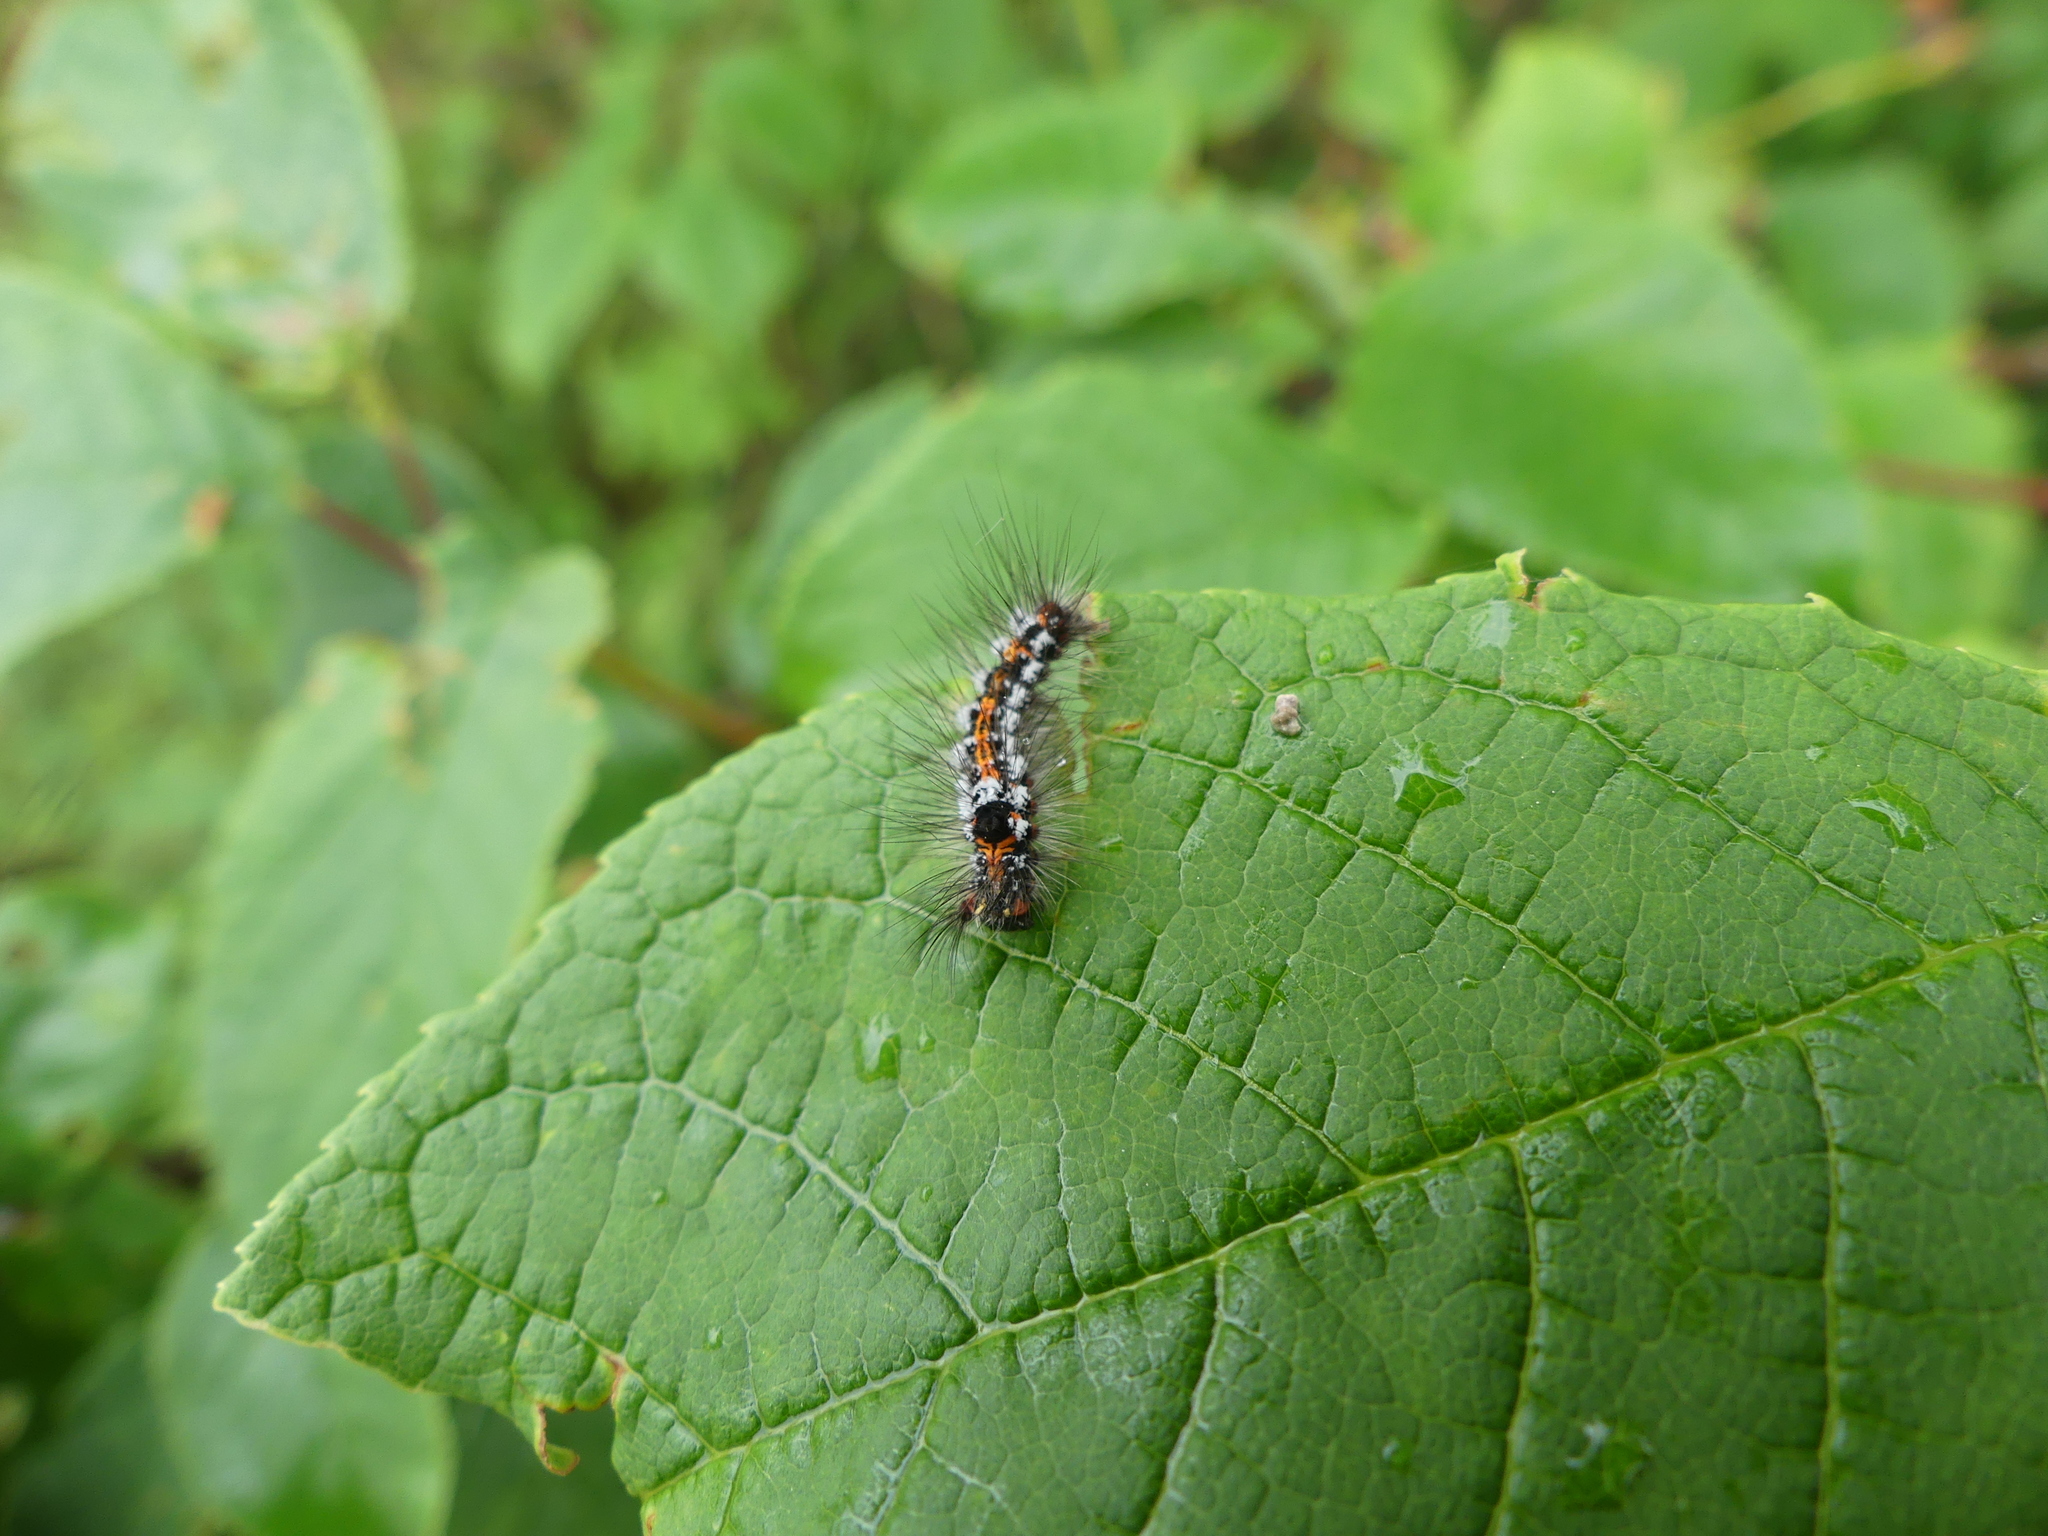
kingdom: Animalia
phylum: Arthropoda
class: Insecta
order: Lepidoptera
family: Erebidae
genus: Sphrageidus
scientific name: Sphrageidus similis
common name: Yellow-tail
